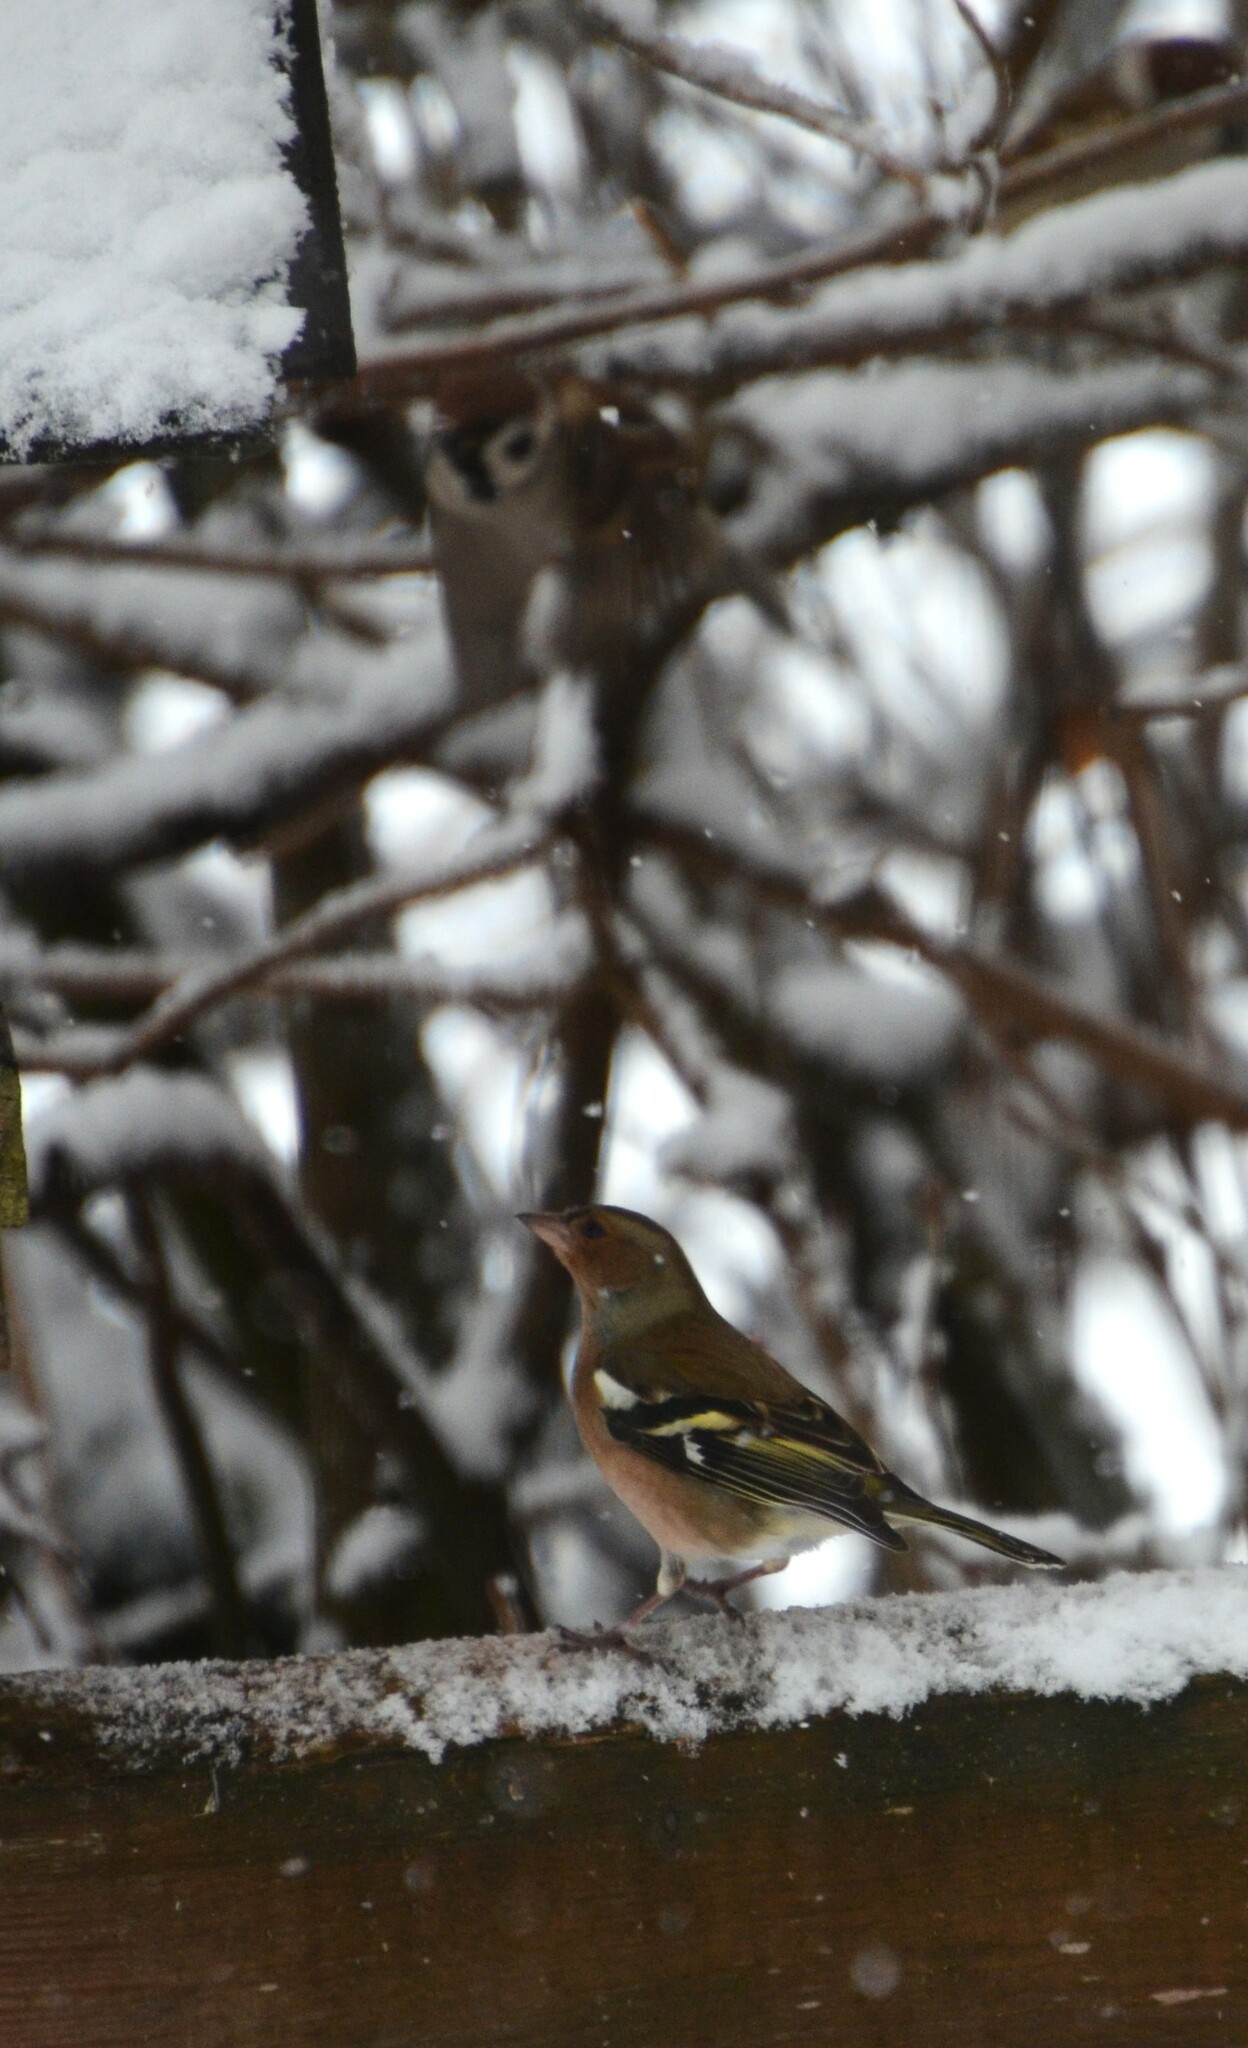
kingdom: Animalia
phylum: Chordata
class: Aves
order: Passeriformes
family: Fringillidae
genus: Fringilla
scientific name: Fringilla coelebs
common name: Common chaffinch
